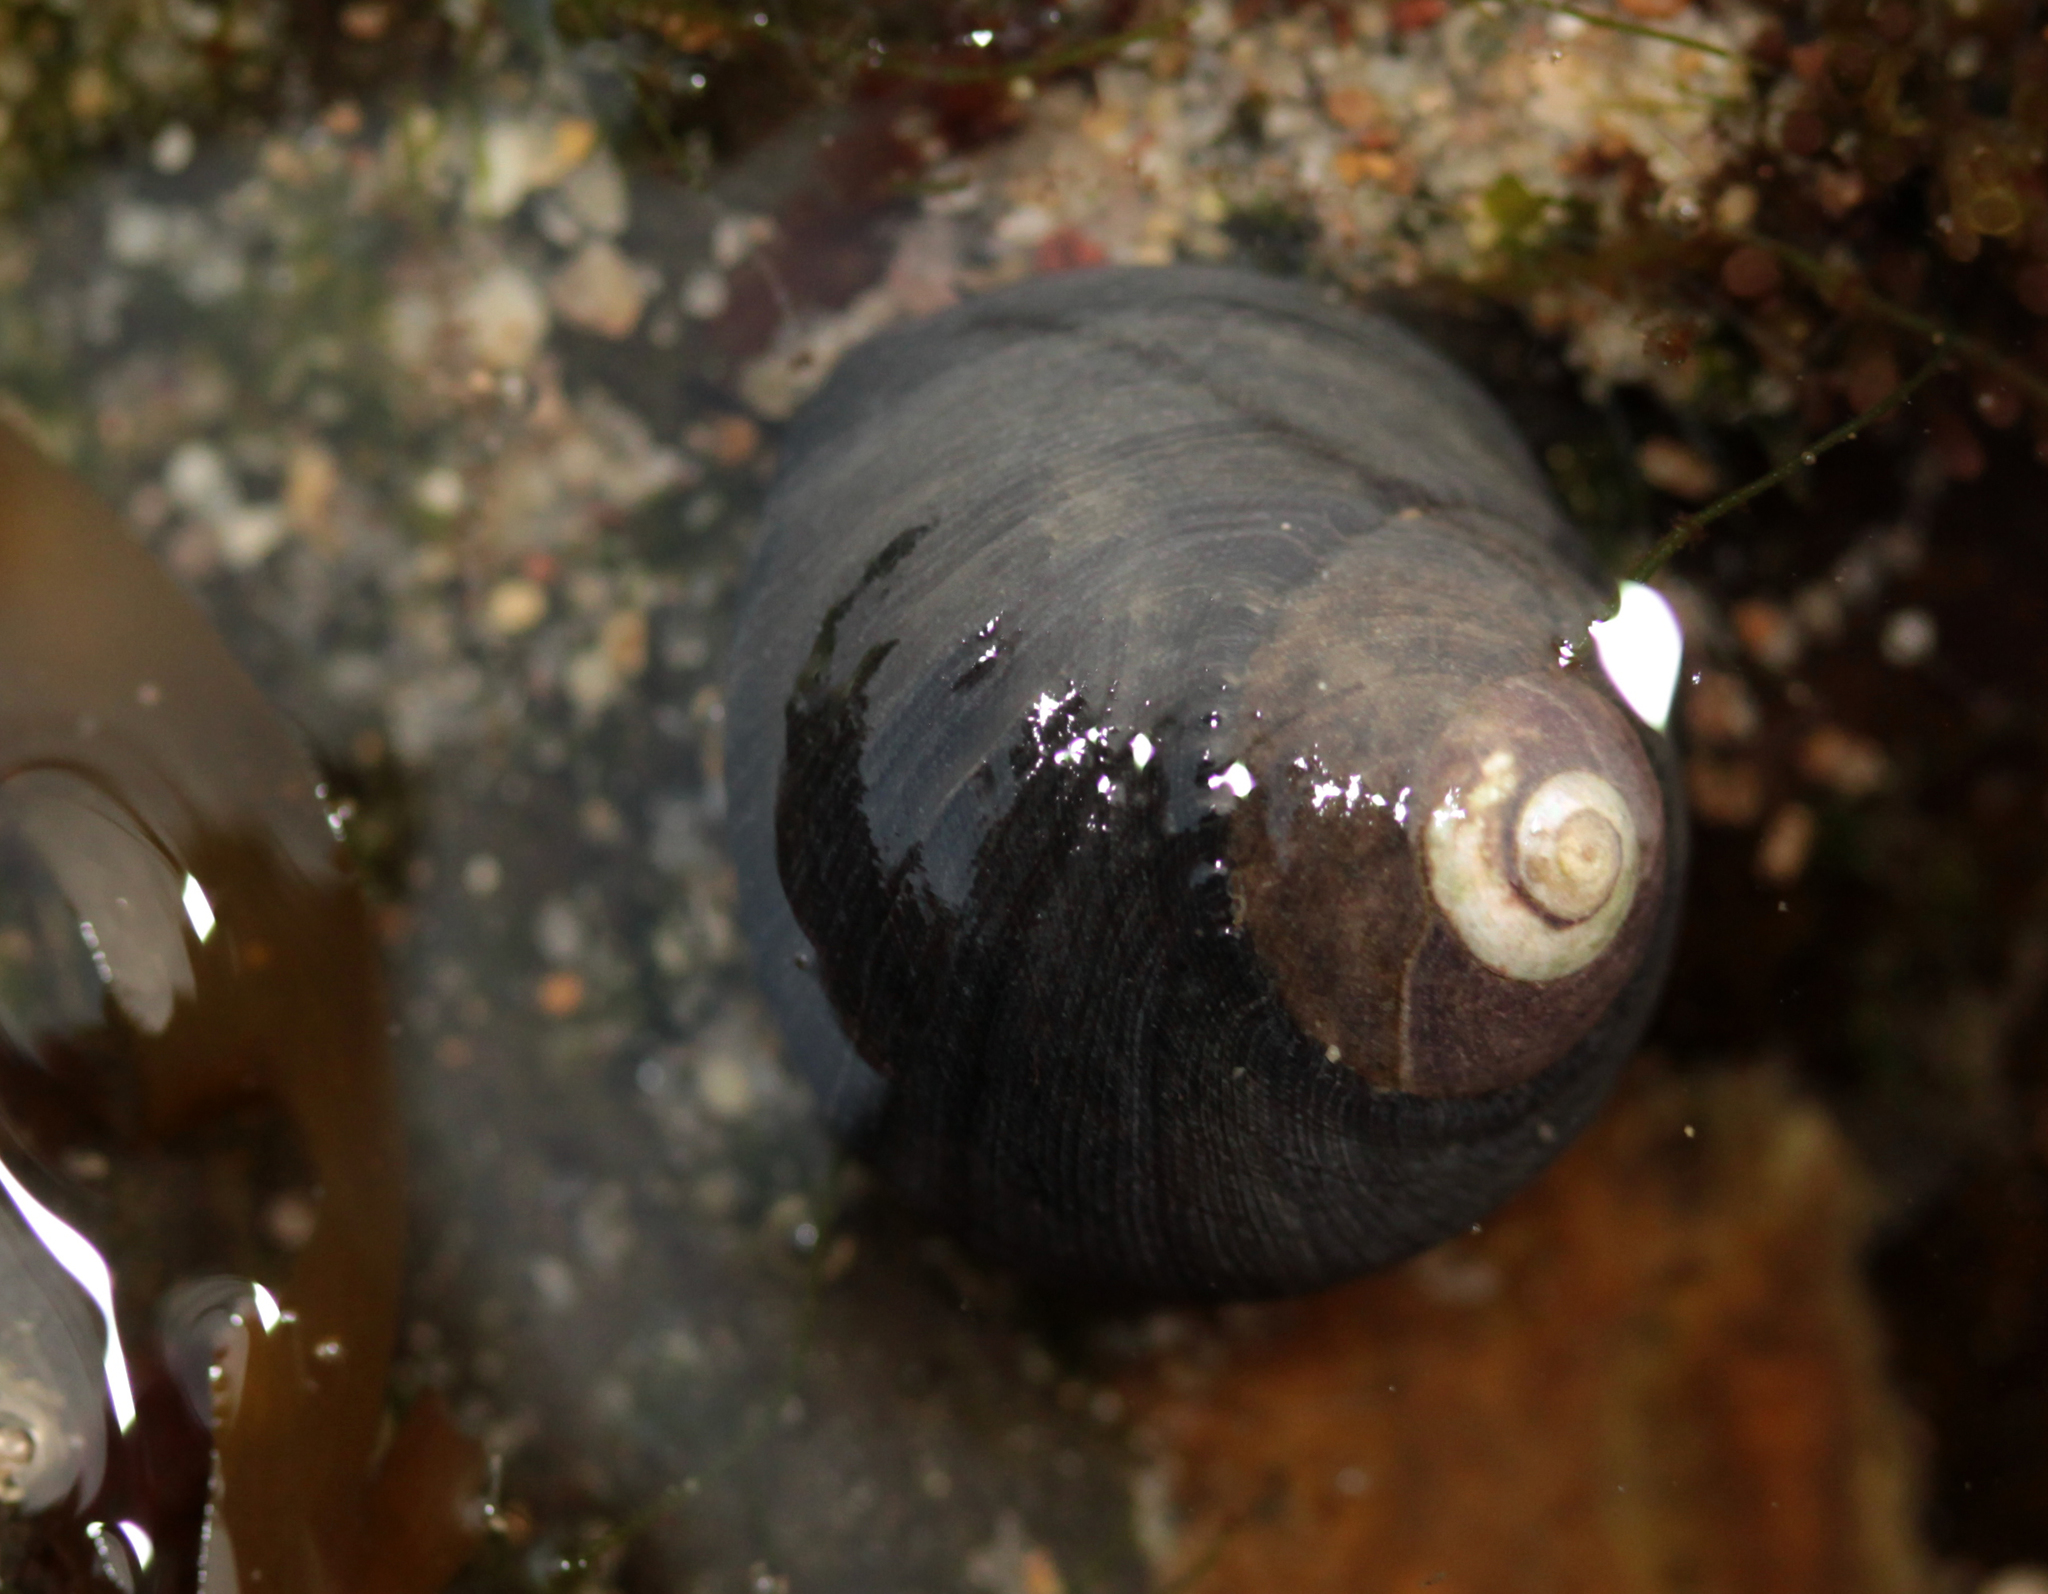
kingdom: Animalia
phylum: Mollusca
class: Gastropoda
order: Trochida
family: Tegulidae
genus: Tegula
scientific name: Tegula funebralis
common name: Black tegula
